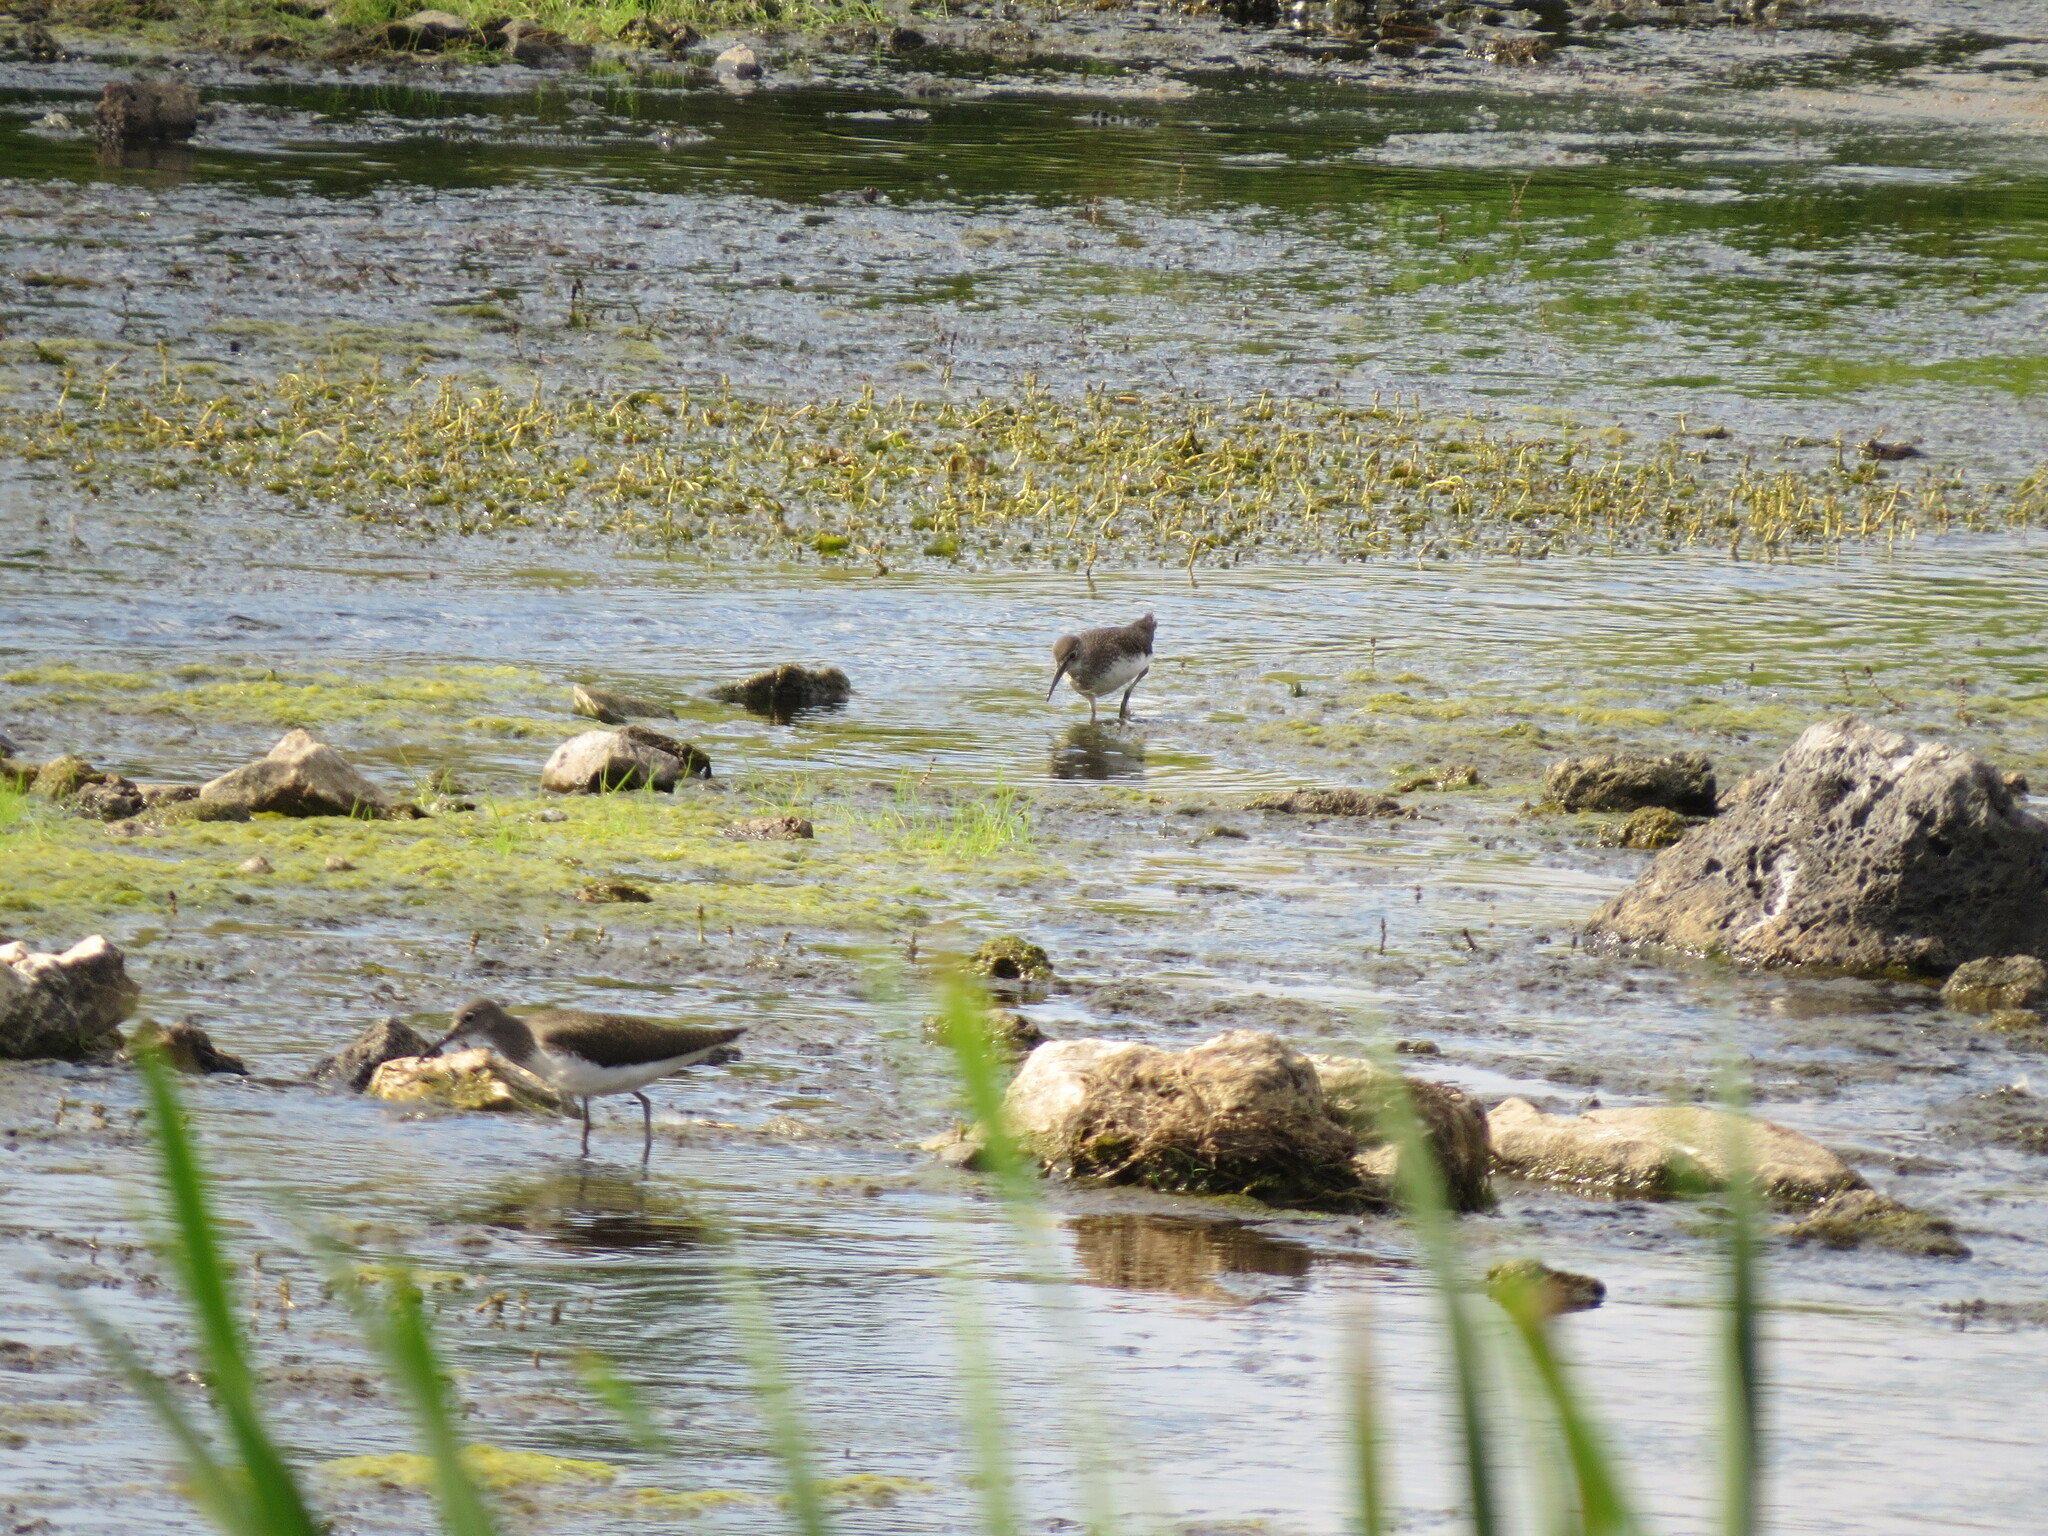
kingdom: Animalia
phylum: Chordata
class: Aves
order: Charadriiformes
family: Scolopacidae
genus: Tringa
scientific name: Tringa ochropus
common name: Green sandpiper
